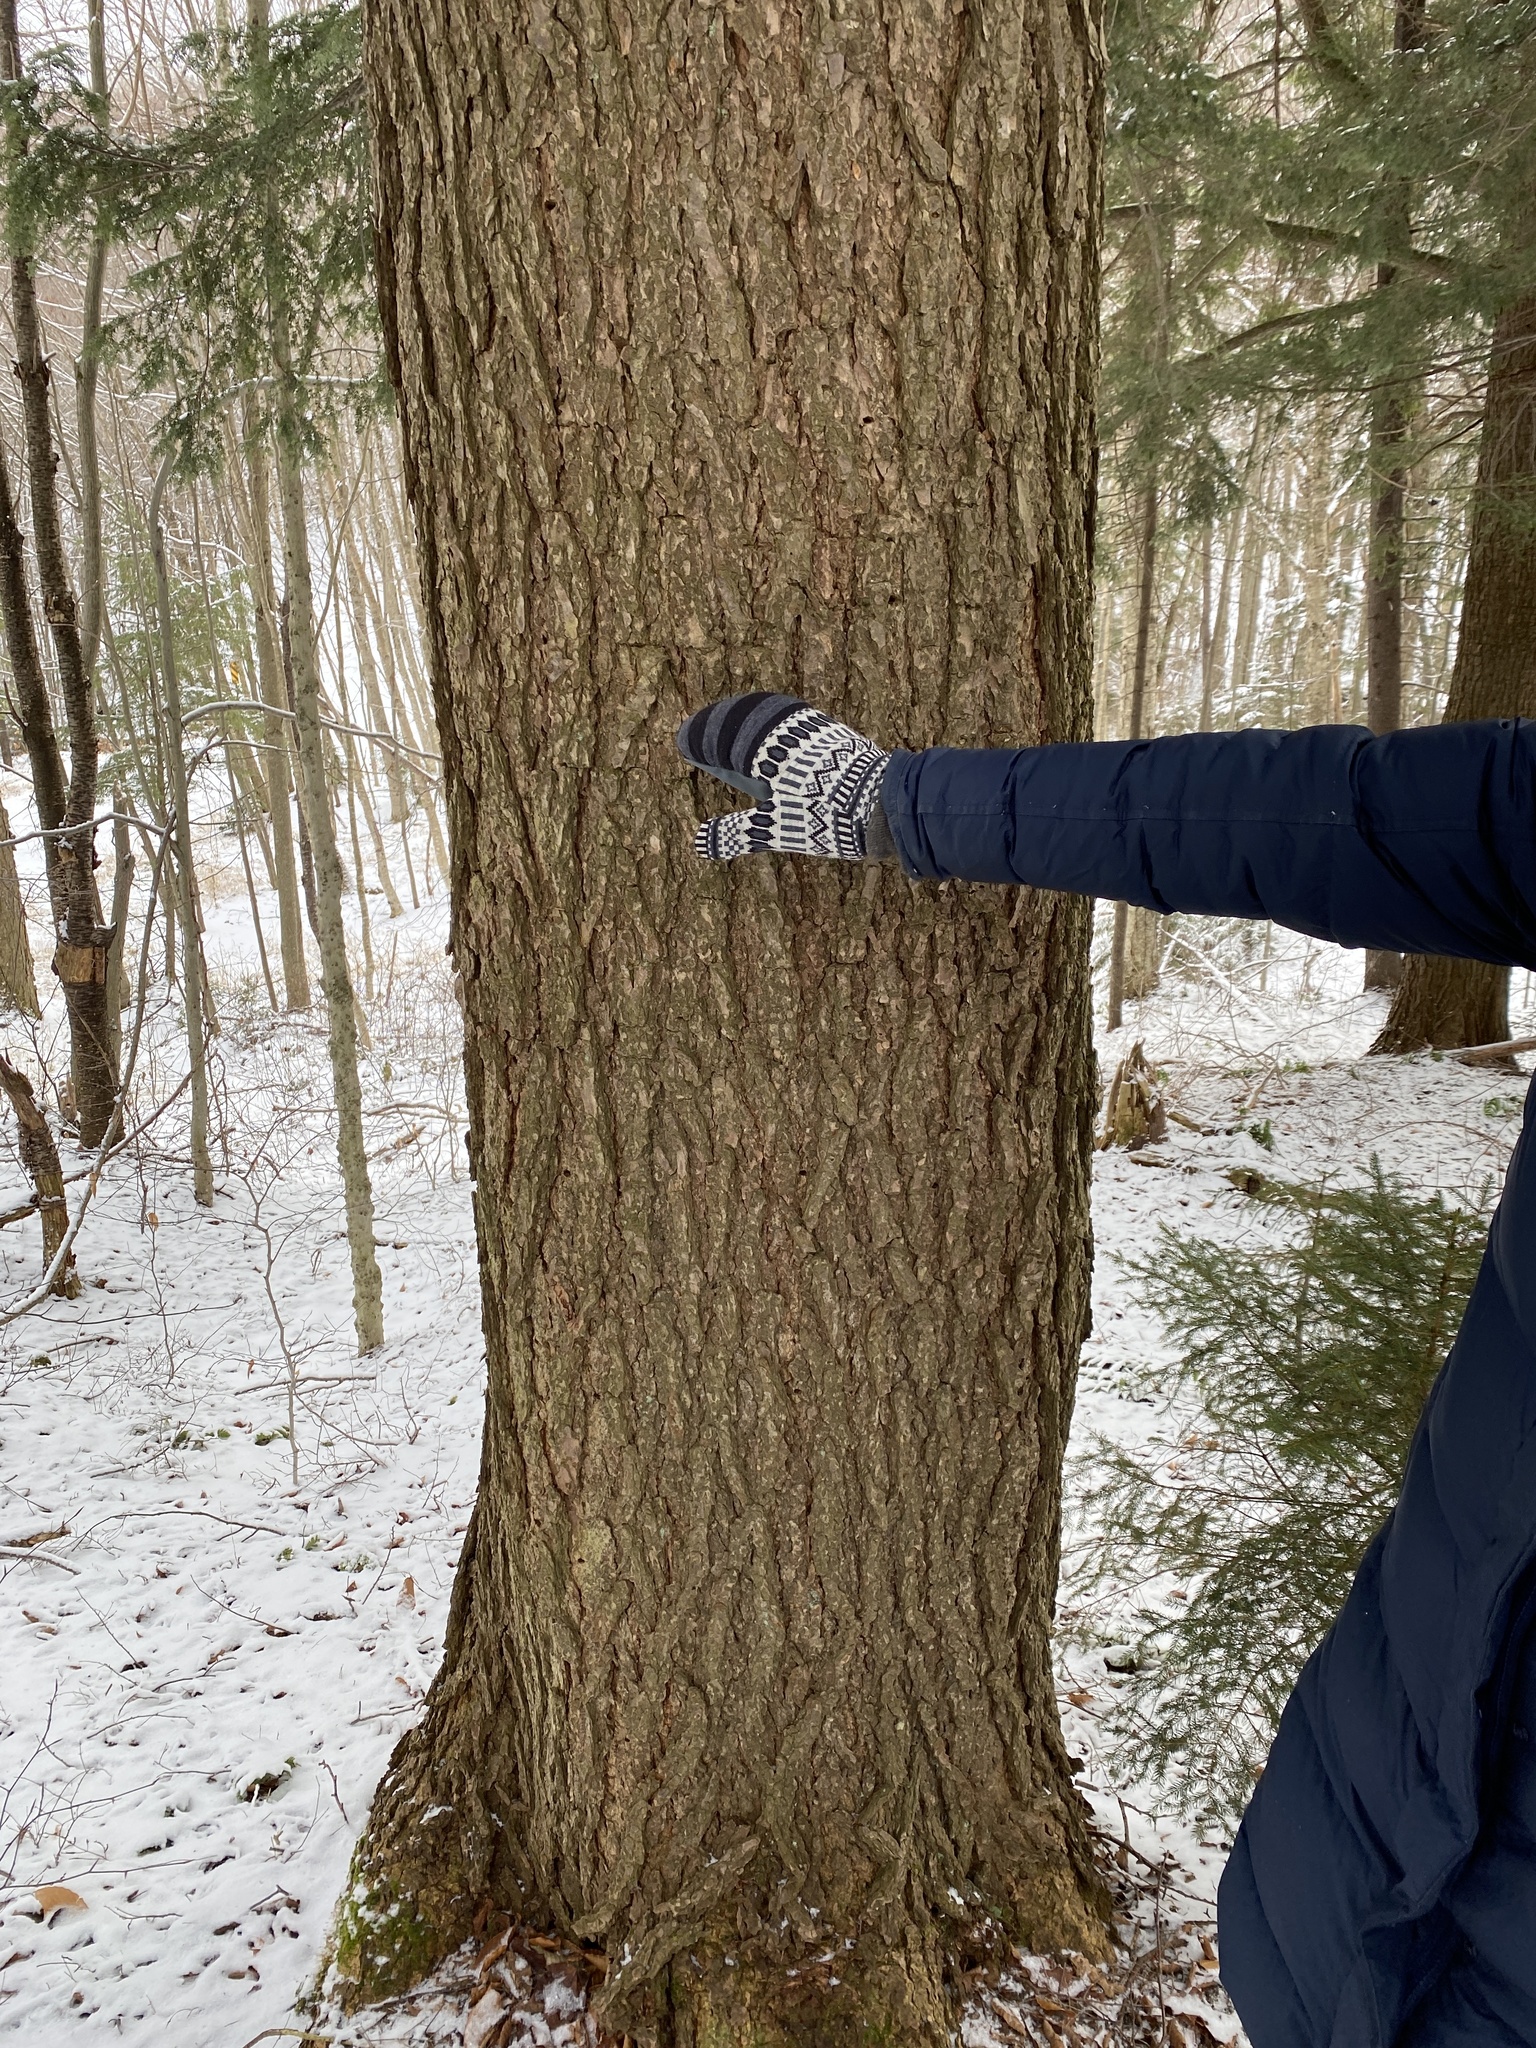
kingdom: Plantae
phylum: Tracheophyta
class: Pinopsida
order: Pinales
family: Pinaceae
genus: Tsuga
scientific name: Tsuga canadensis
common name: Eastern hemlock
